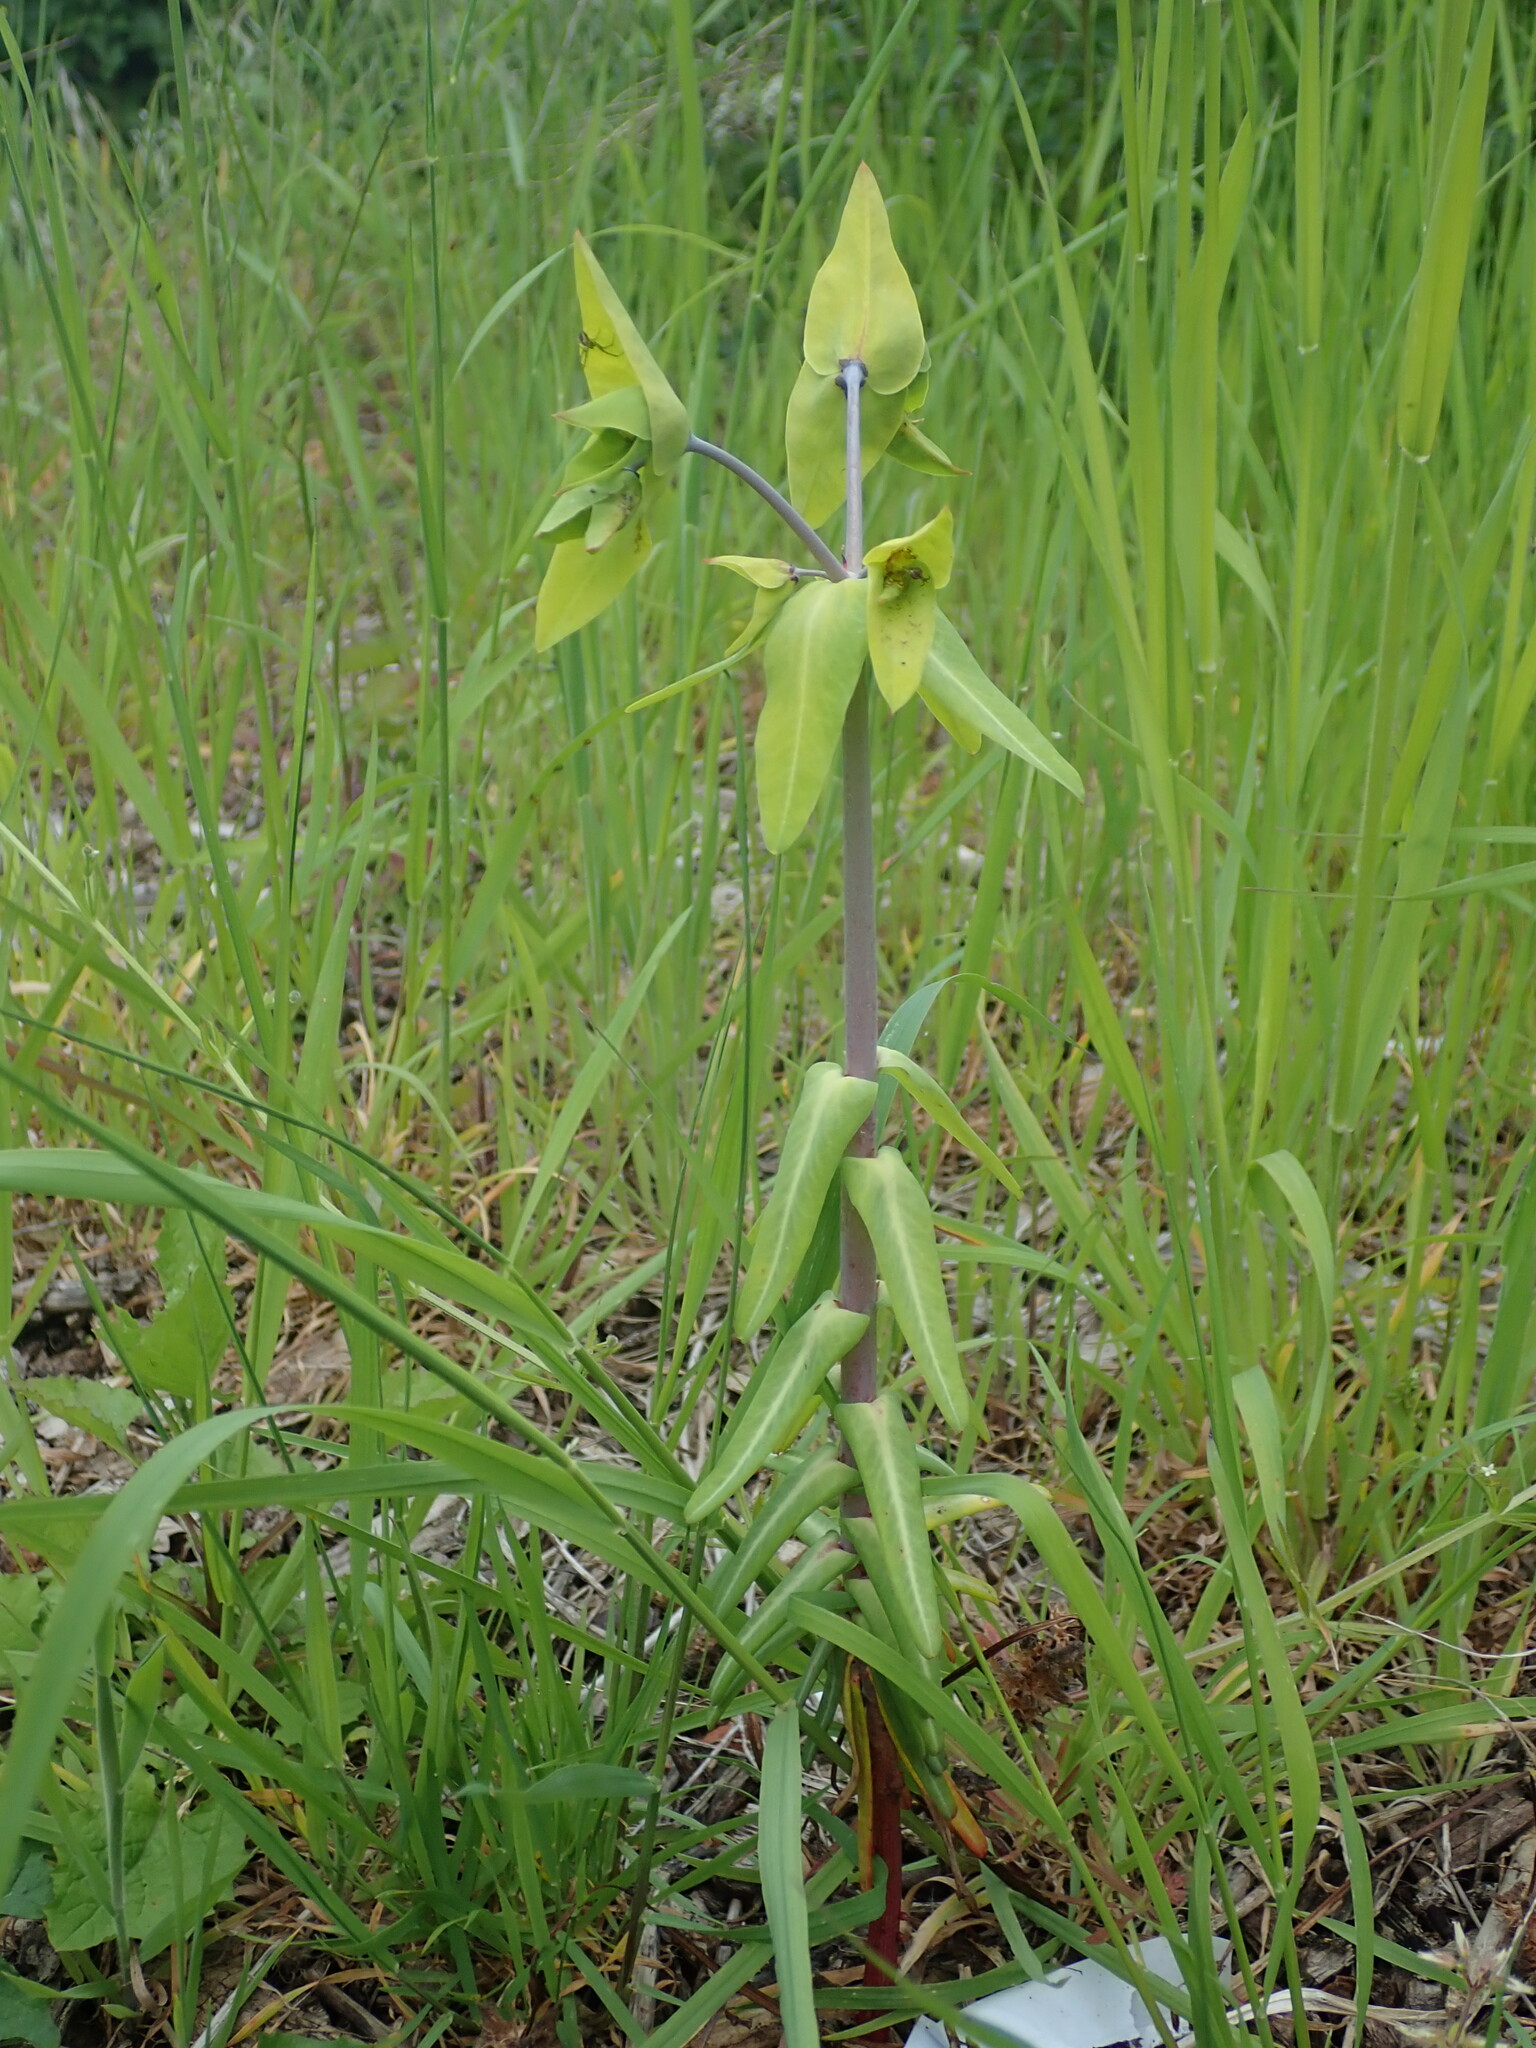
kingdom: Plantae
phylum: Tracheophyta
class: Magnoliopsida
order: Malpighiales
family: Euphorbiaceae
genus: Euphorbia
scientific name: Euphorbia lathyris
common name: Caper spurge
